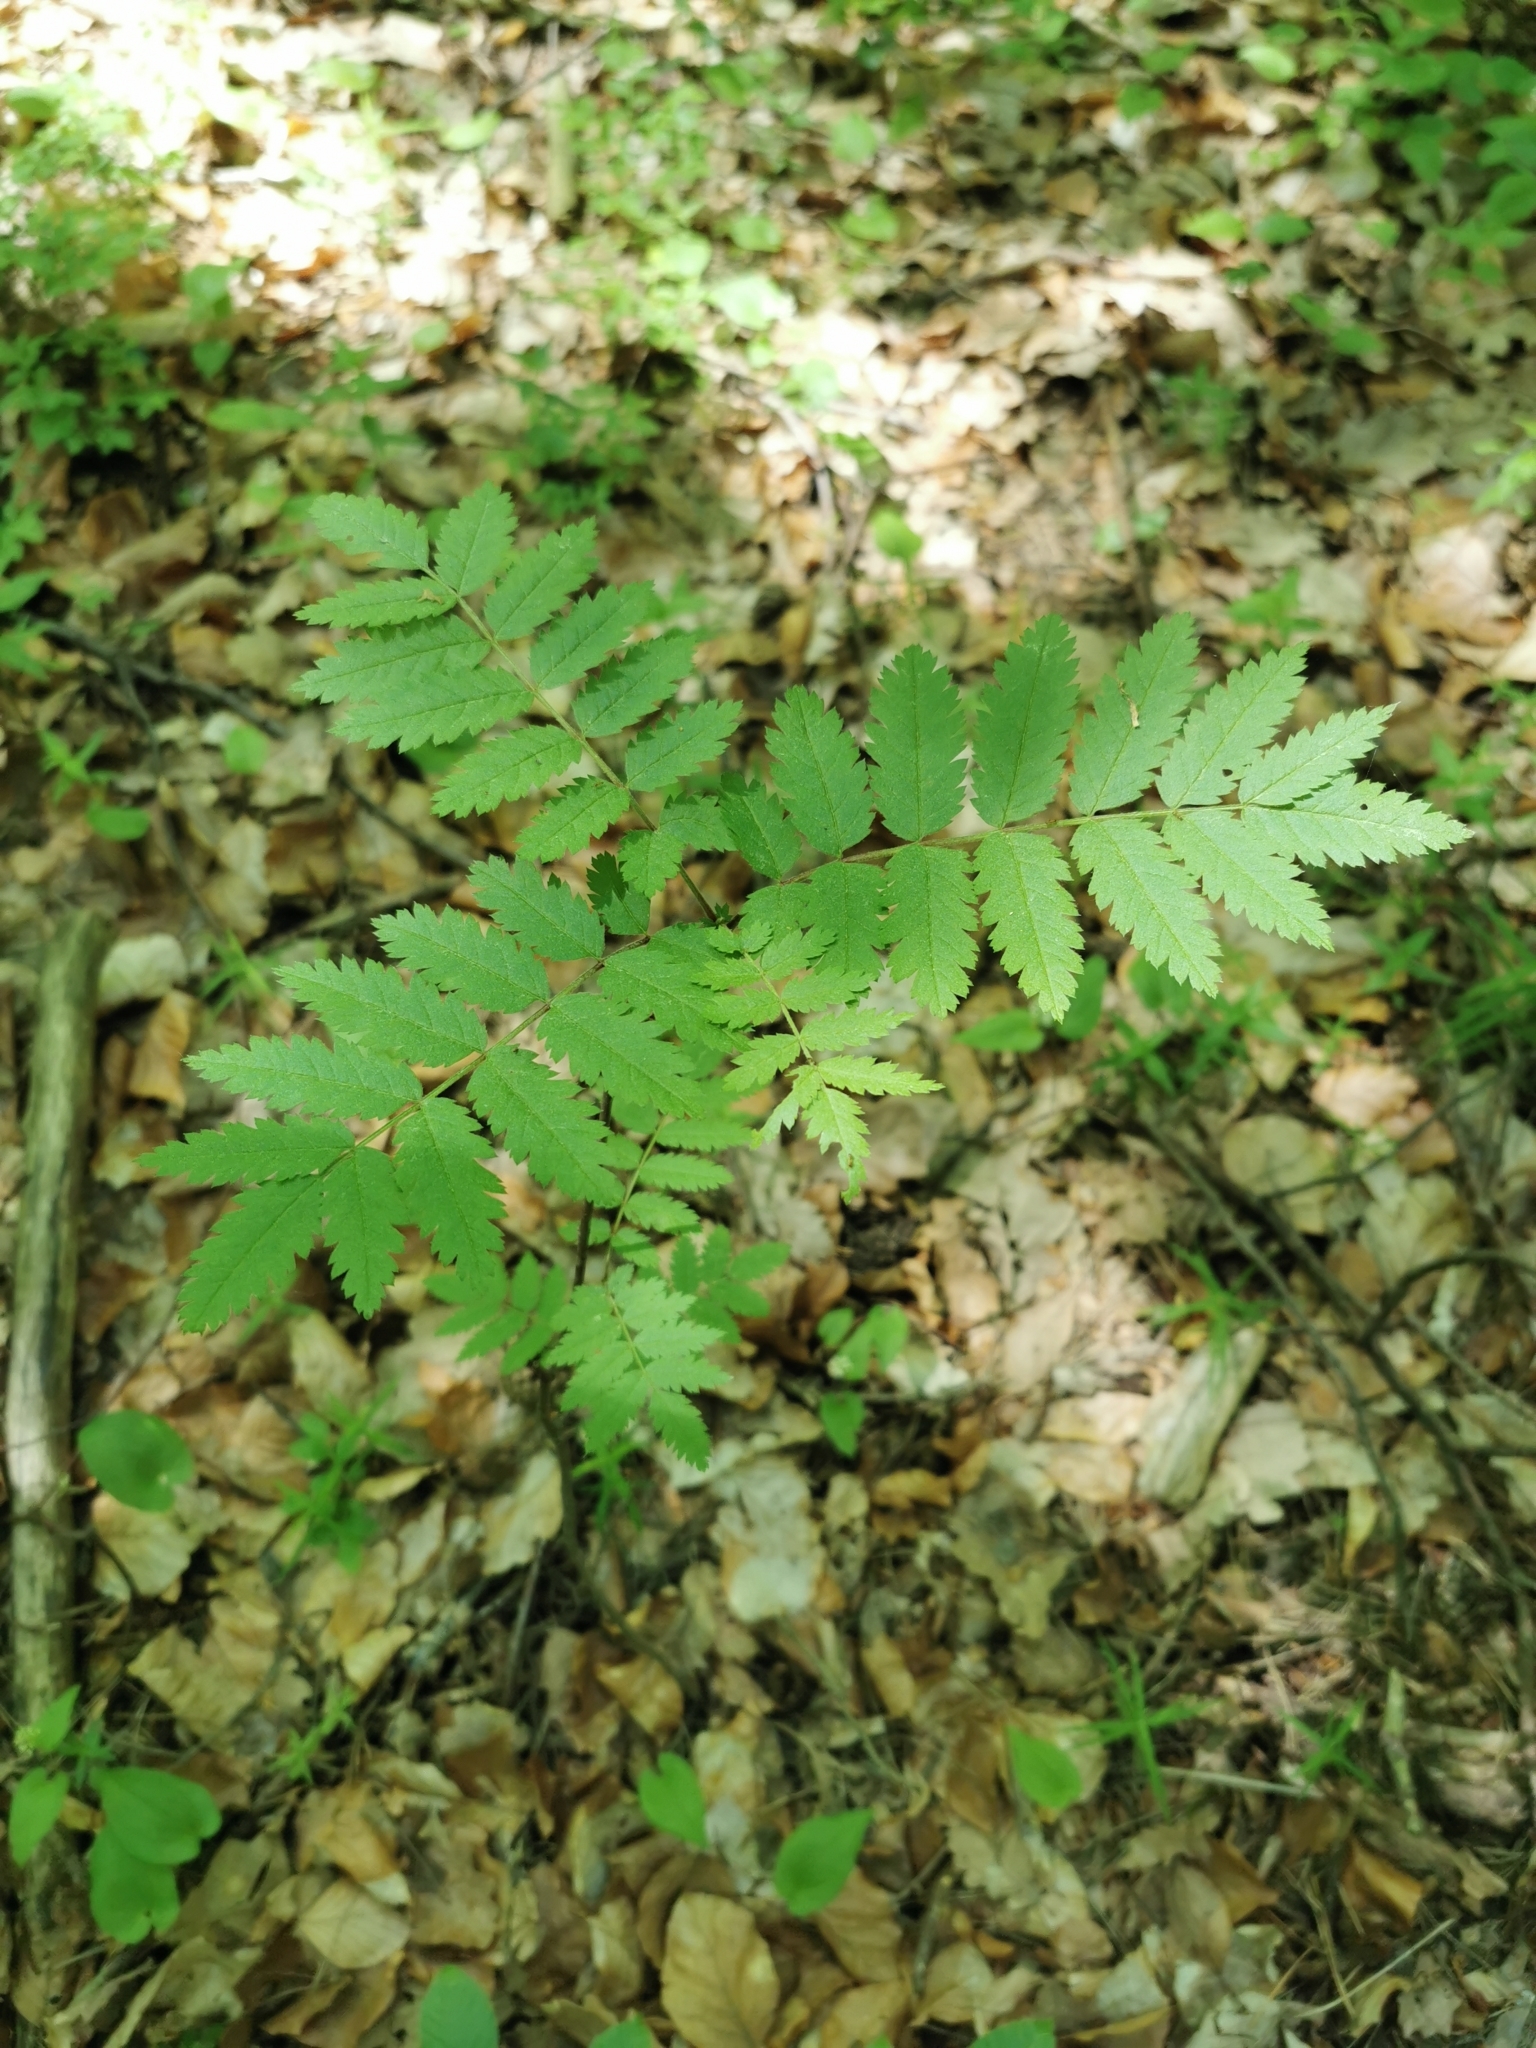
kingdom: Plantae
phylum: Tracheophyta
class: Magnoliopsida
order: Rosales
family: Rosaceae
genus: Sorbus
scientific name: Sorbus aucuparia
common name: Rowan
